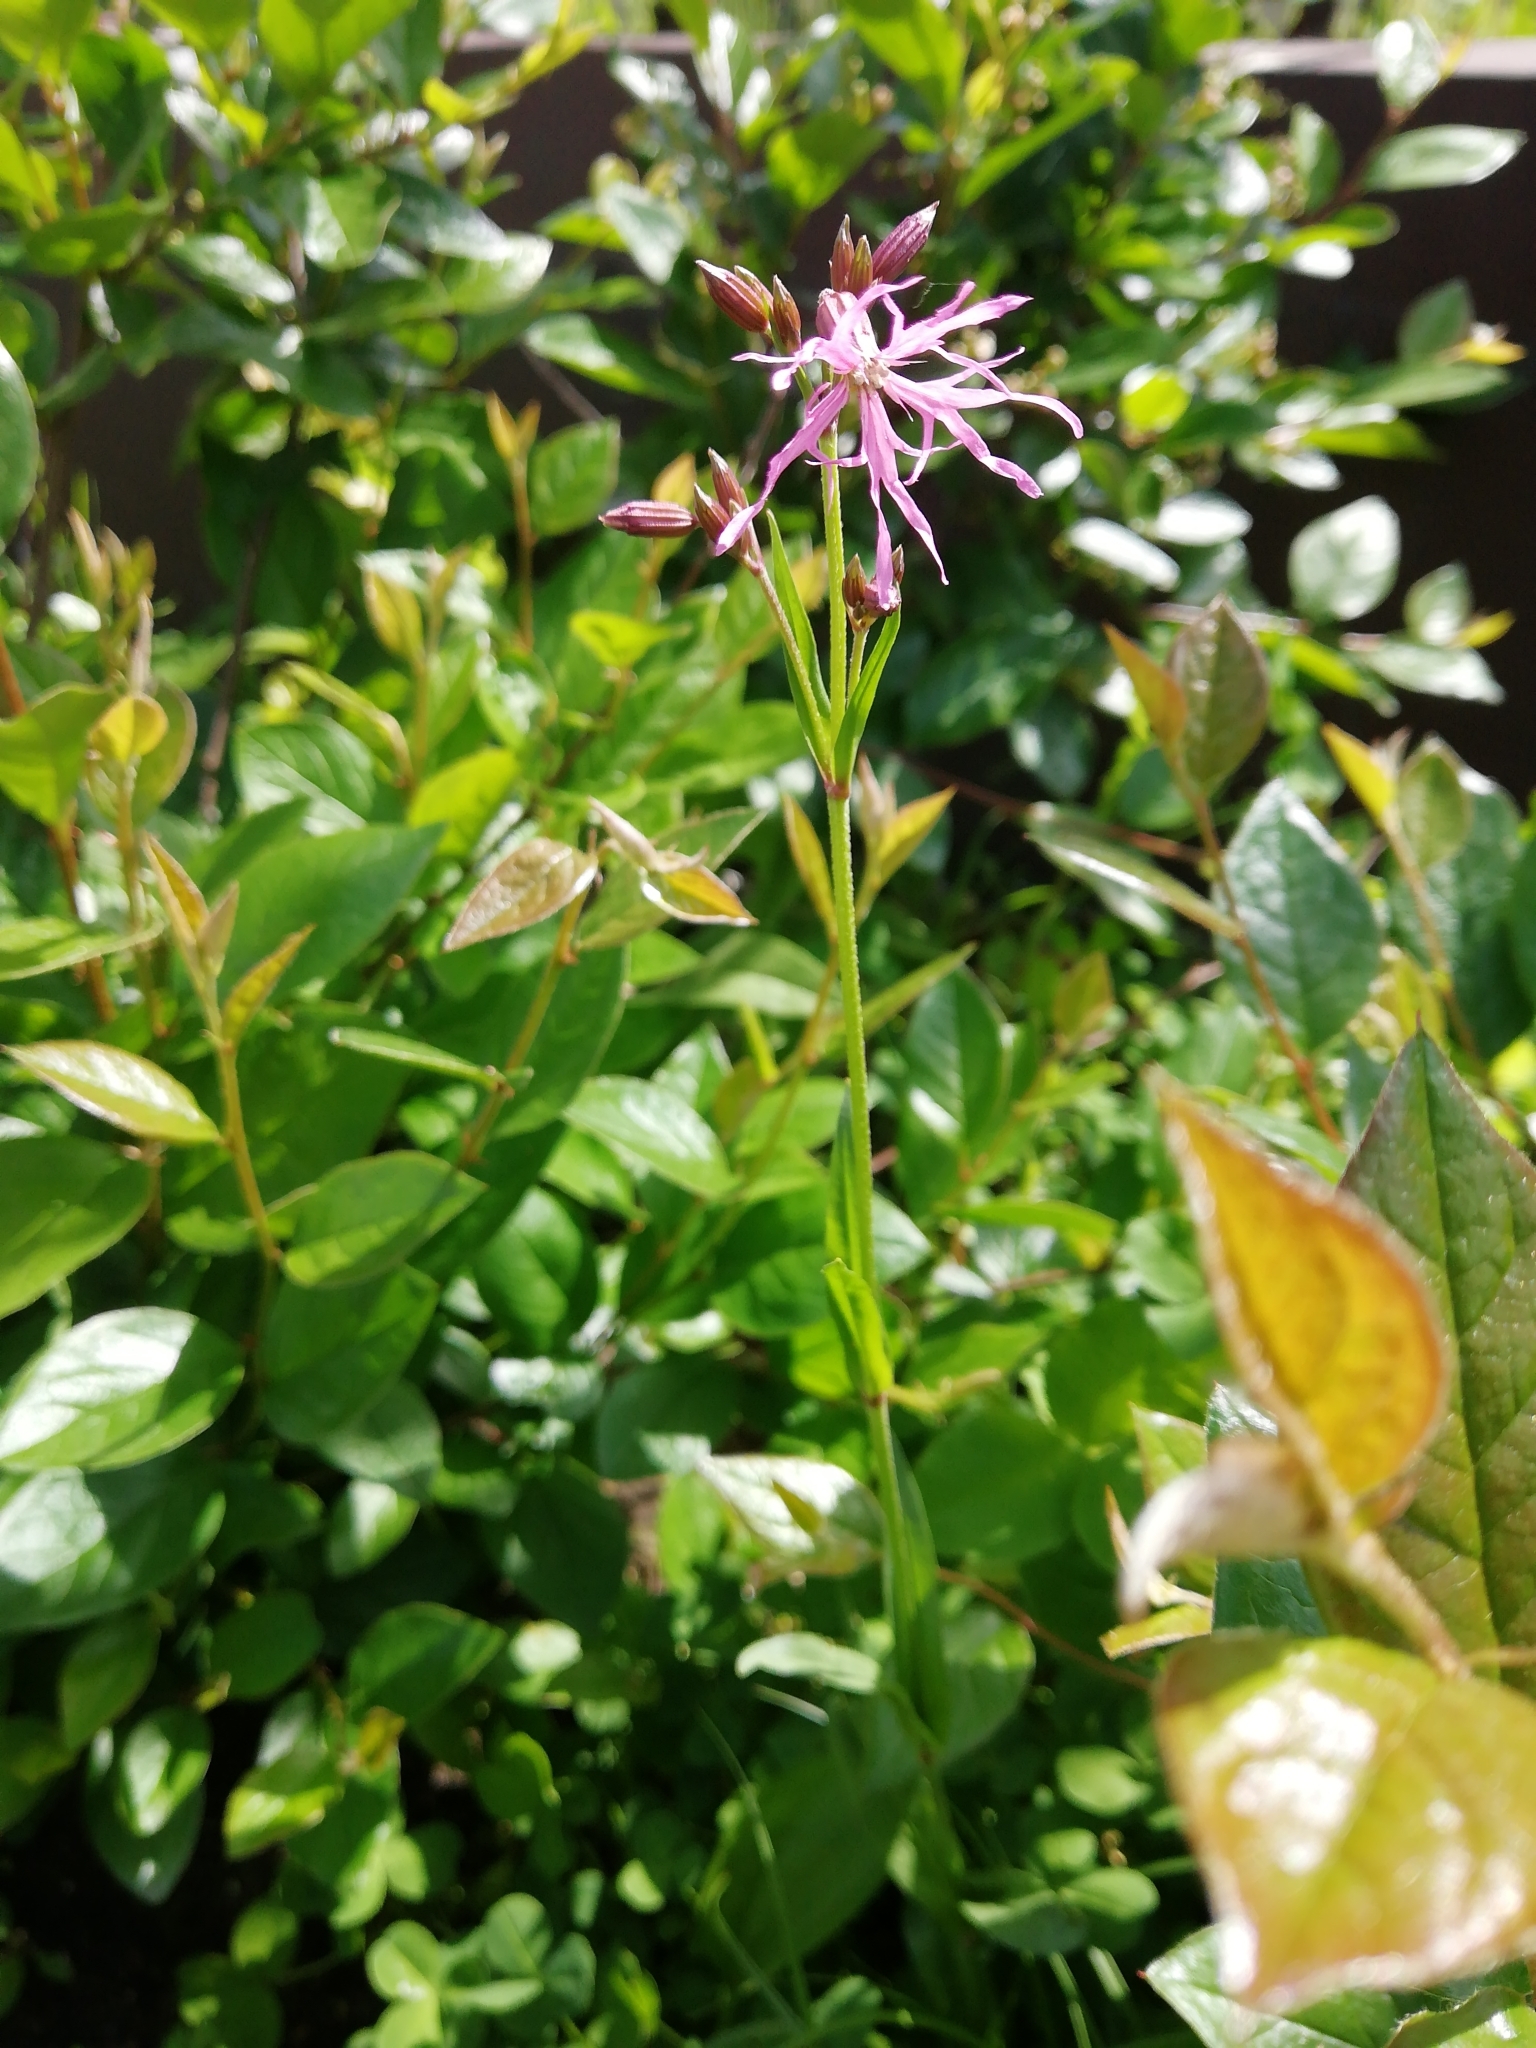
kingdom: Plantae
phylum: Tracheophyta
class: Magnoliopsida
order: Caryophyllales
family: Caryophyllaceae
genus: Silene
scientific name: Silene flos-cuculi
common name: Ragged-robin
